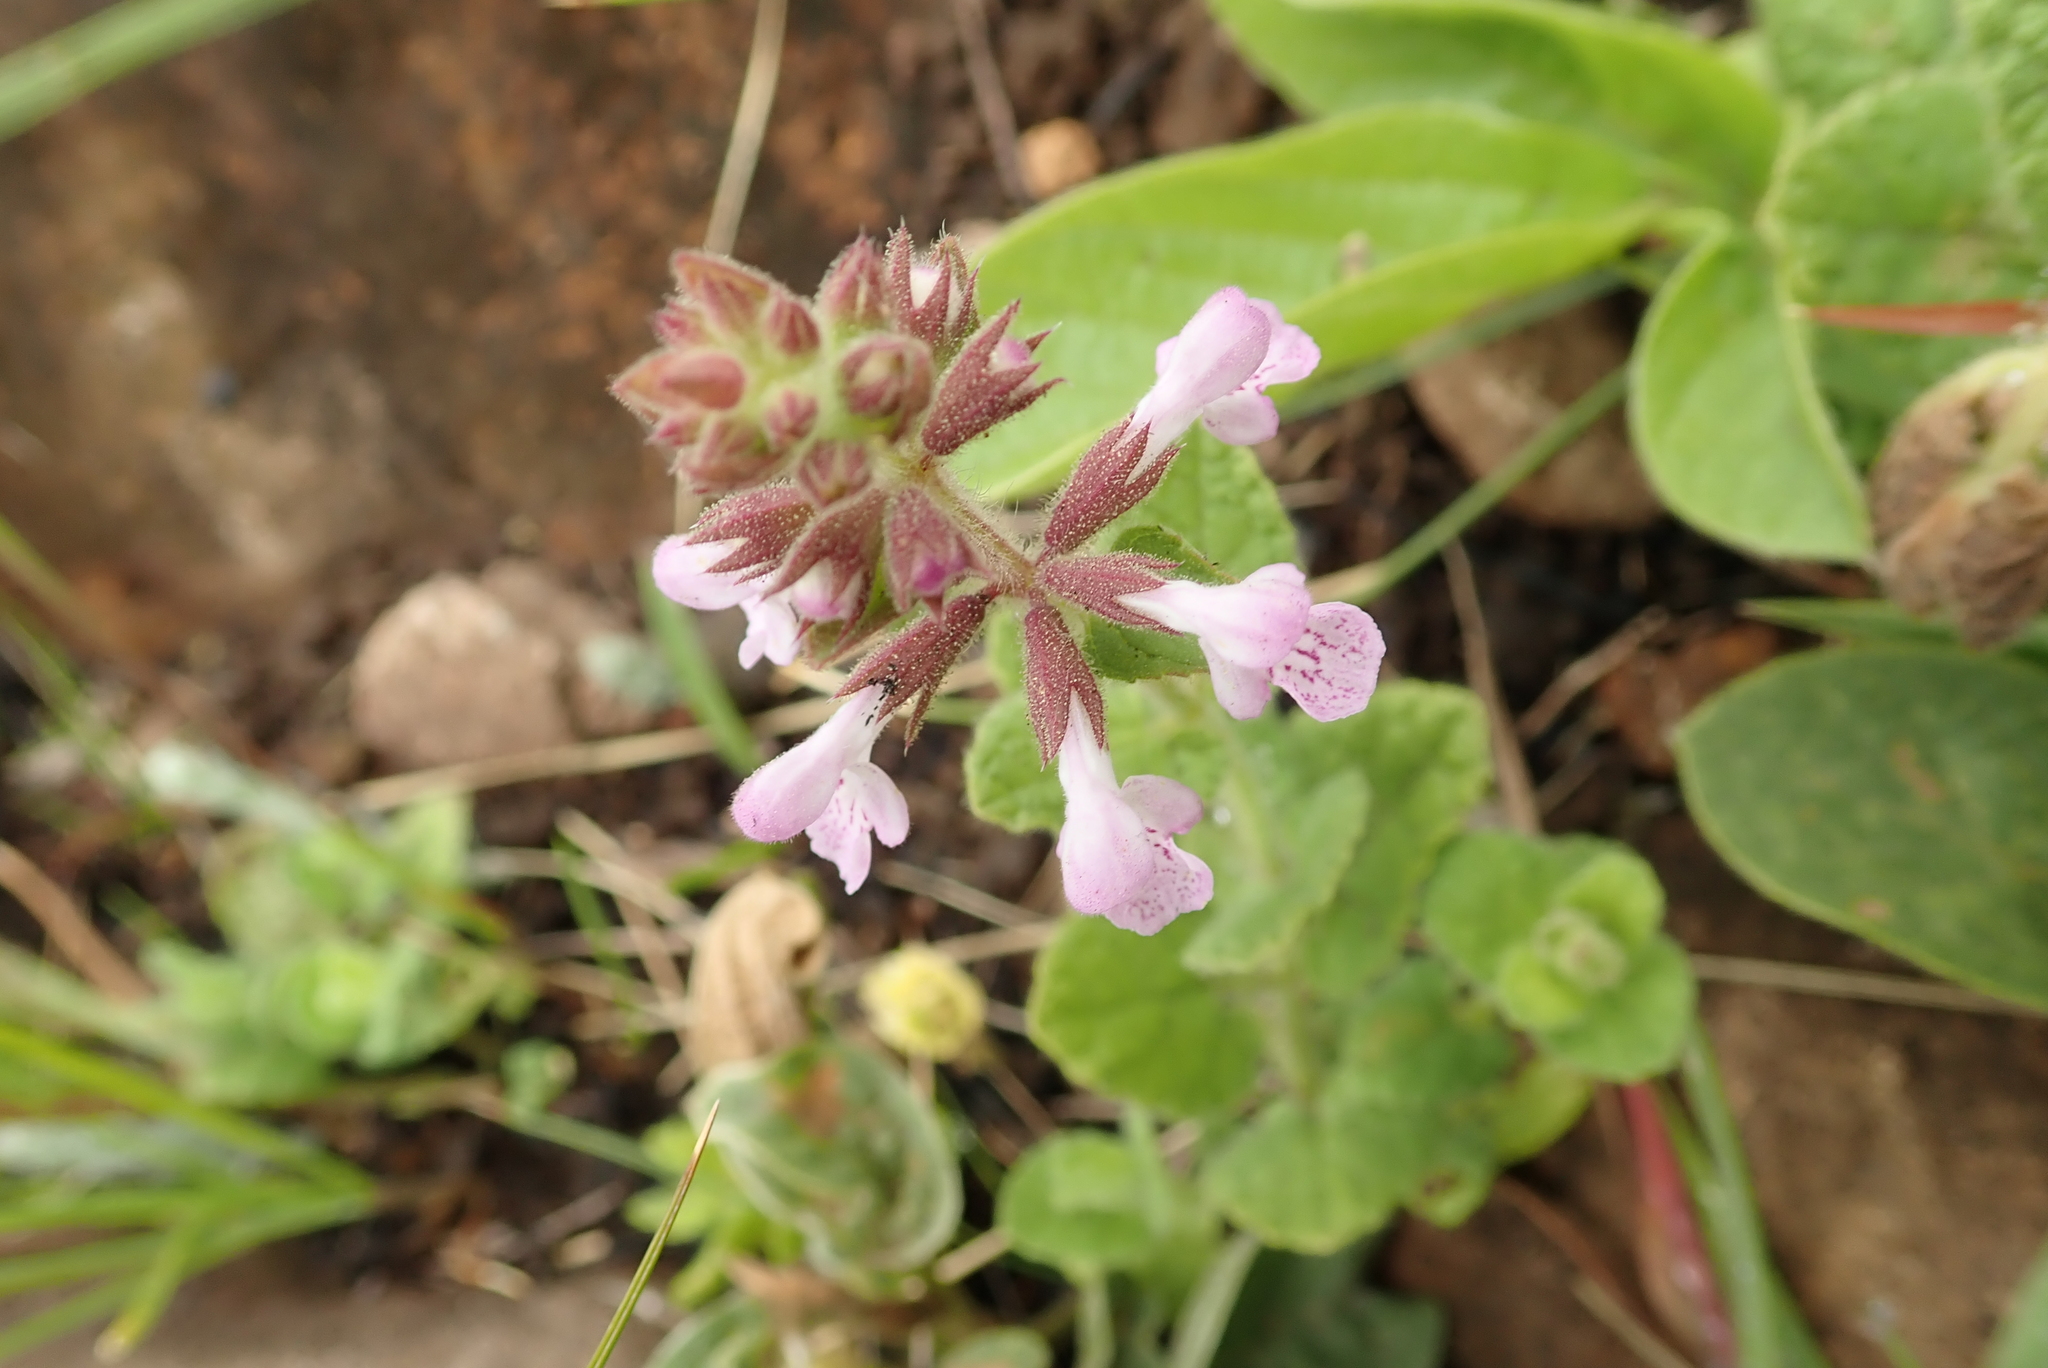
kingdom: Plantae
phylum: Tracheophyta
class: Magnoliopsida
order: Lamiales
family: Lamiaceae
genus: Stachys
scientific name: Stachys aethiopica
